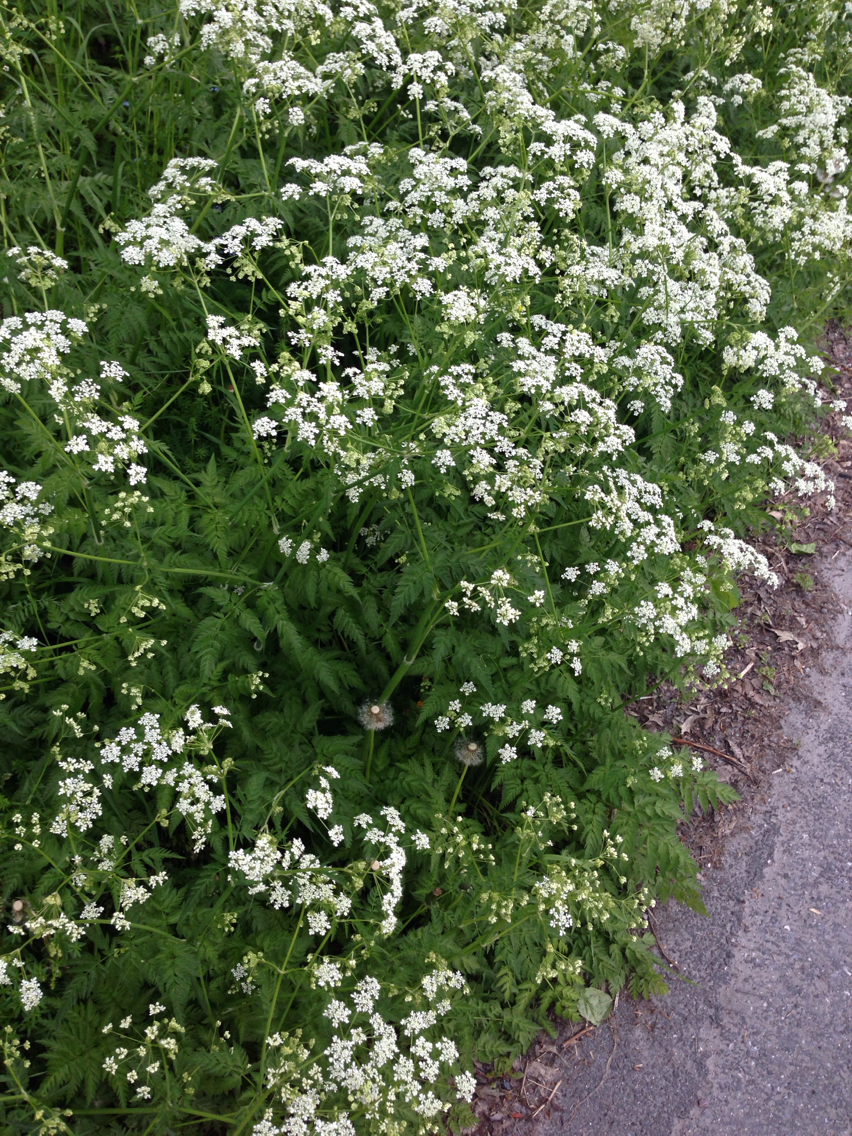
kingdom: Plantae
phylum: Tracheophyta
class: Magnoliopsida
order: Apiales
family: Apiaceae
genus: Anthriscus
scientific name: Anthriscus sylvestris
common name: Cow parsley
